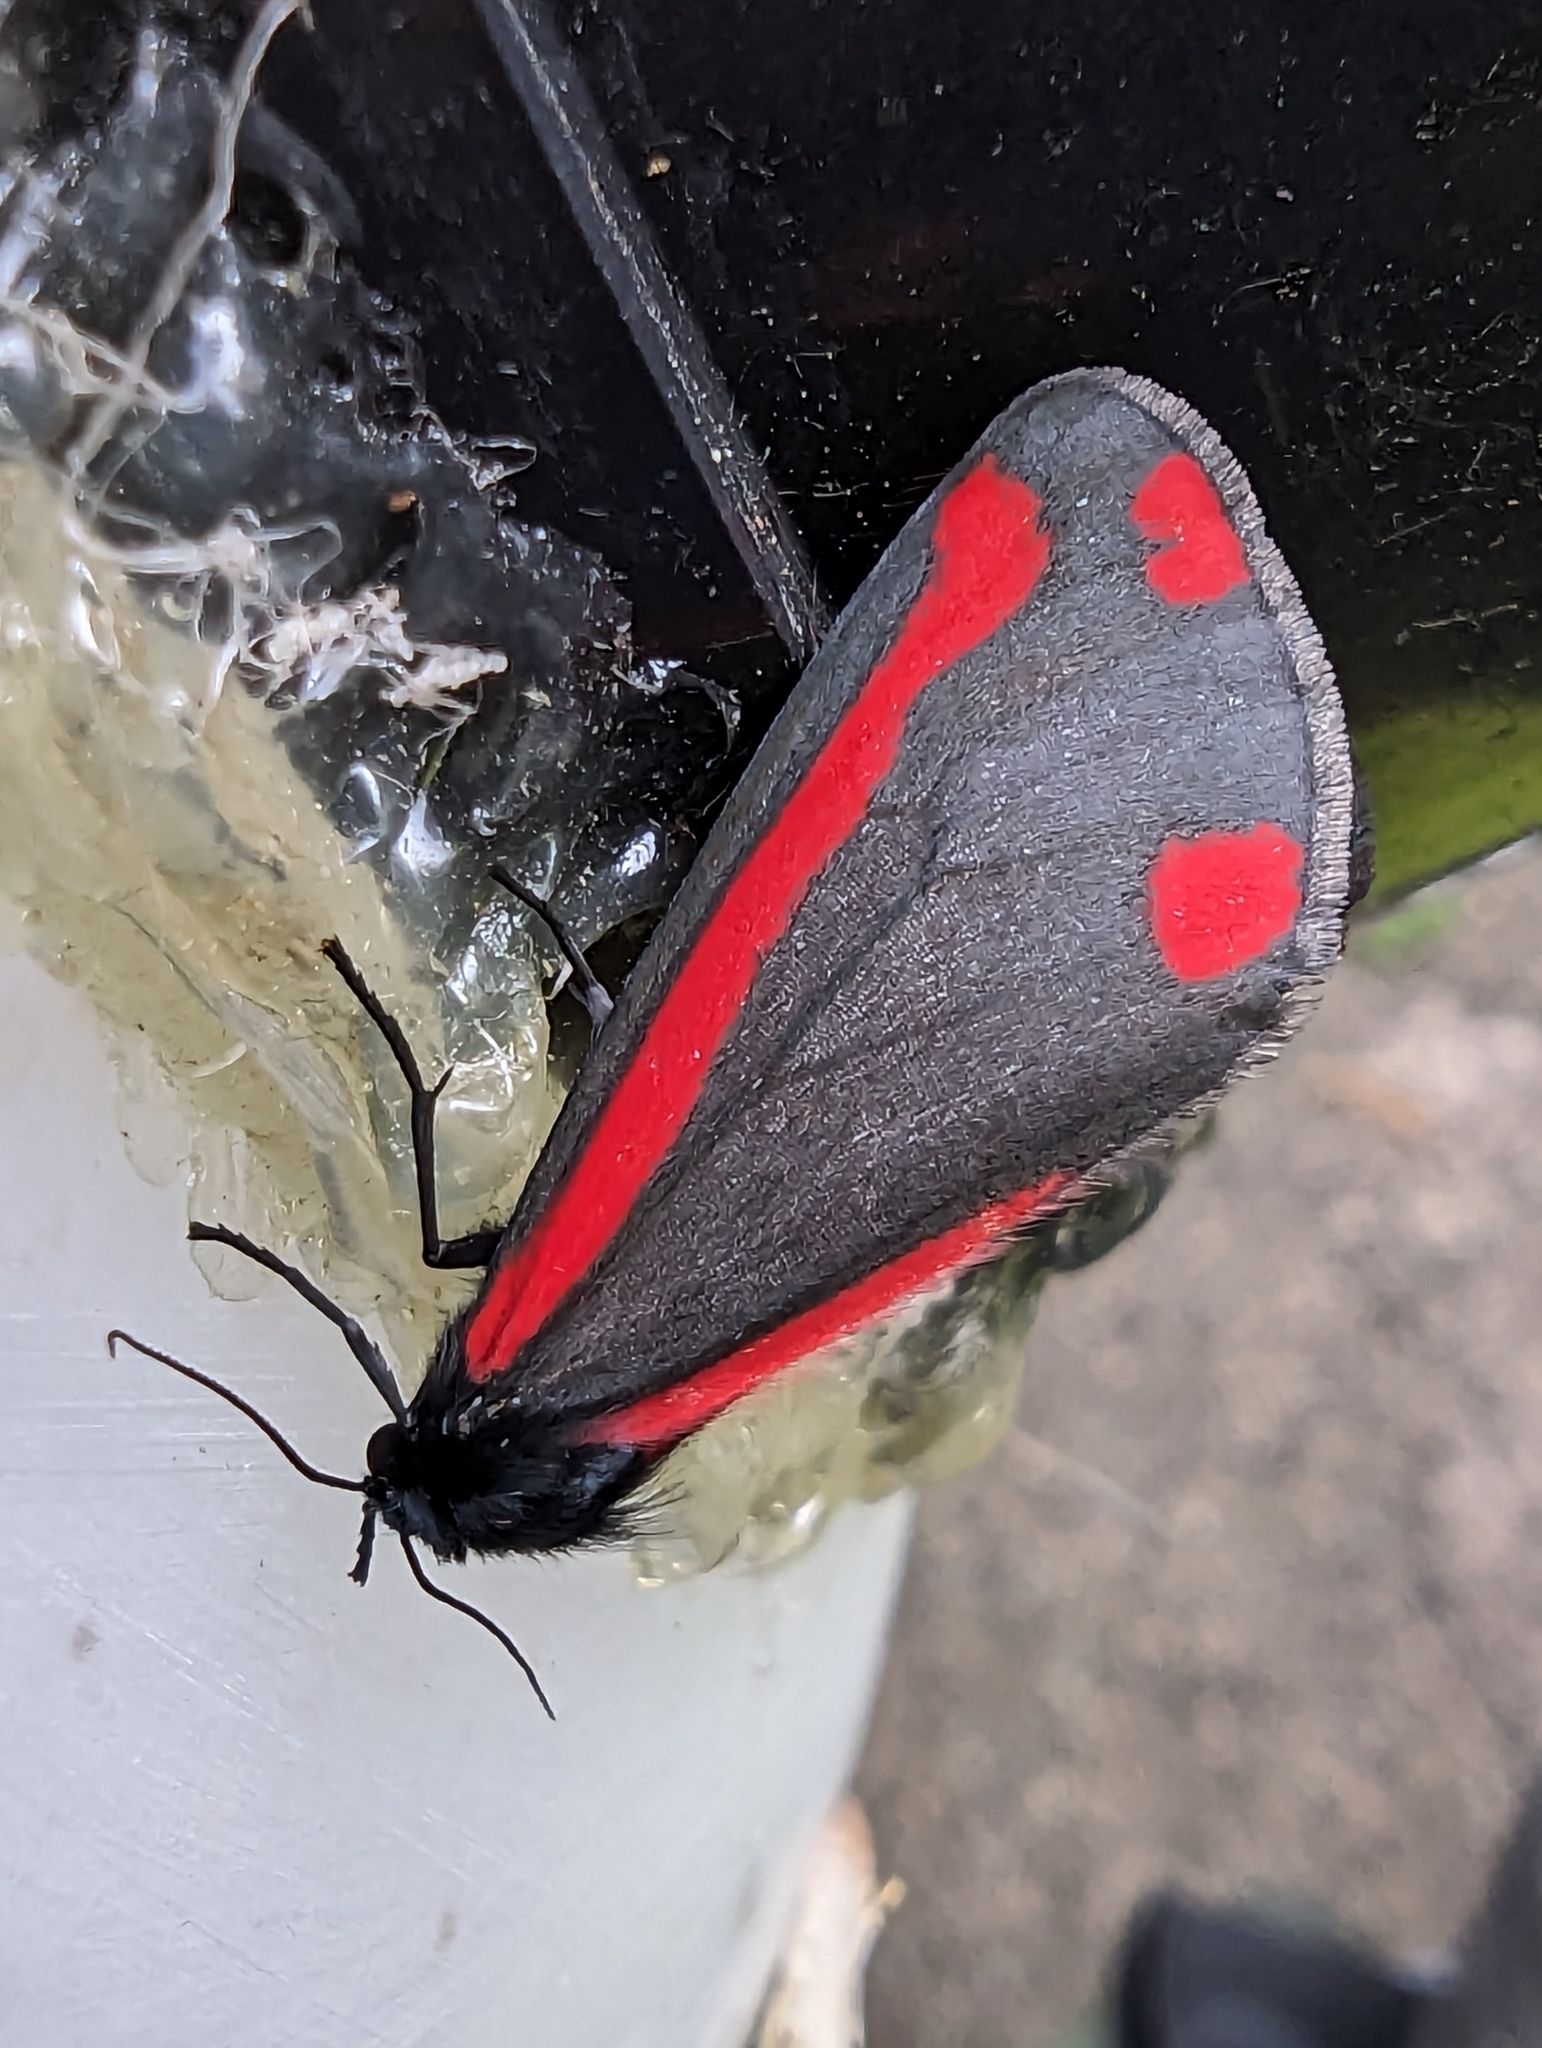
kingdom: Animalia
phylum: Arthropoda
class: Insecta
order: Lepidoptera
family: Erebidae
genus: Tyria
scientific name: Tyria jacobaeae
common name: Cinnabar
